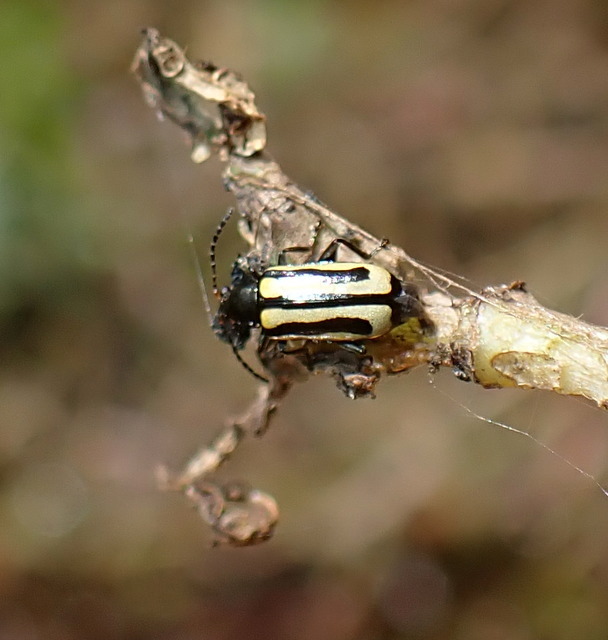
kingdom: Animalia
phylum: Arthropoda
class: Insecta
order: Coleoptera
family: Chrysomelidae
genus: Agasicles
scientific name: Agasicles hygrophila
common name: Alligatorweed flea beetle
